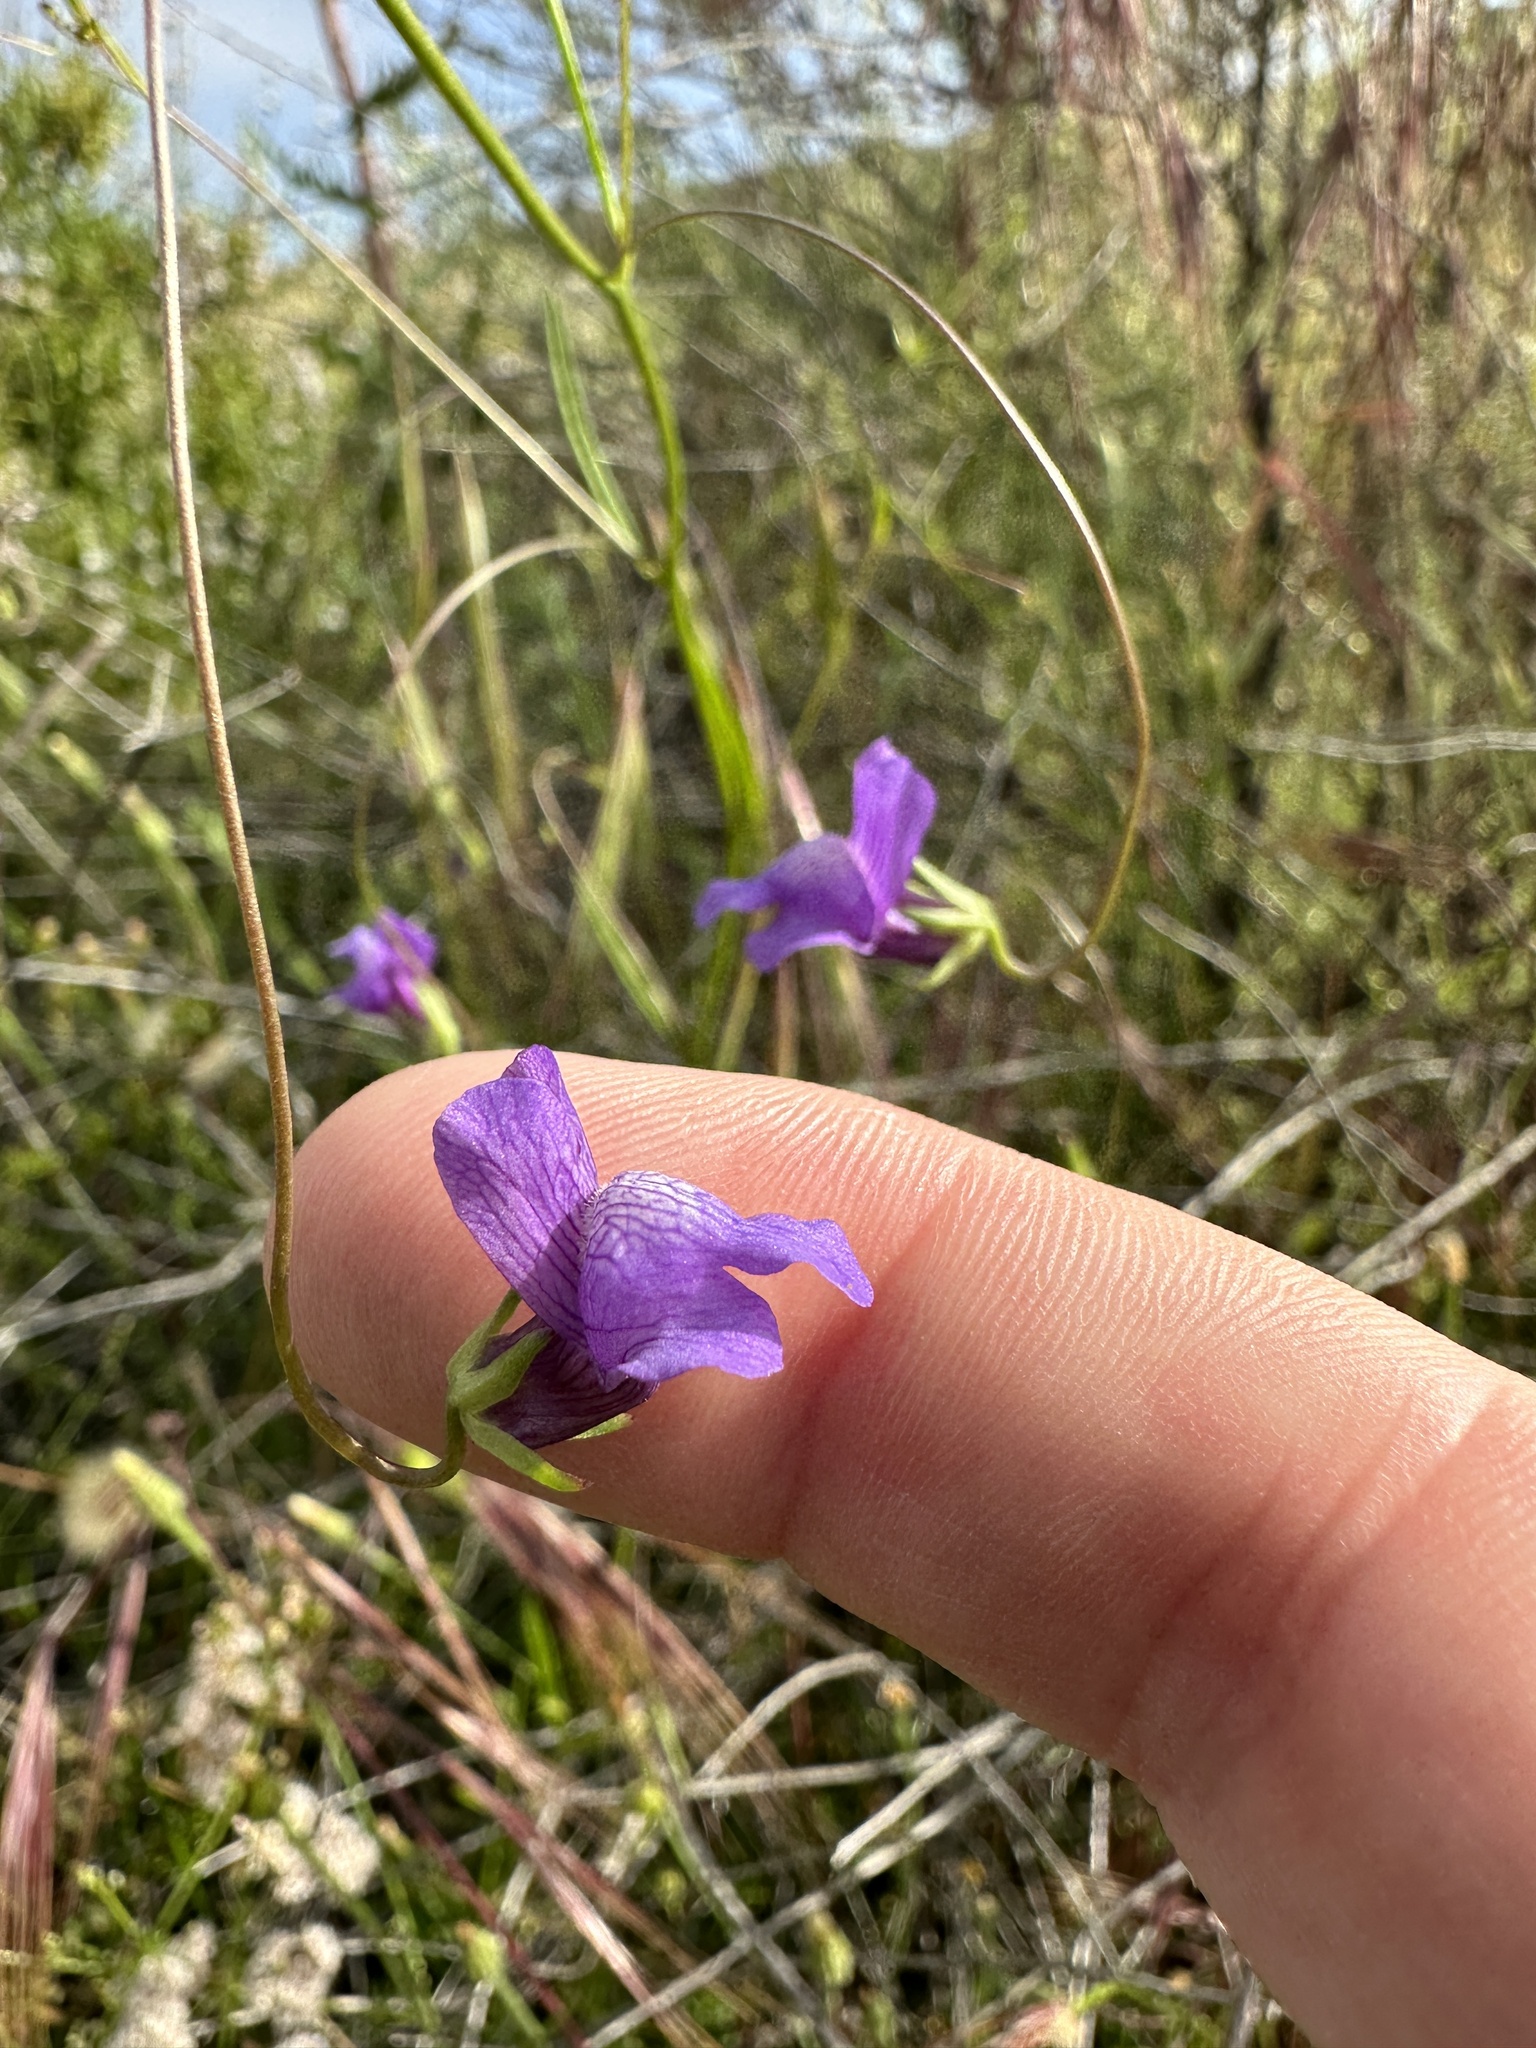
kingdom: Plantae
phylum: Tracheophyta
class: Magnoliopsida
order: Lamiales
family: Plantaginaceae
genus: Neogaerrhinum
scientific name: Neogaerrhinum strictum
